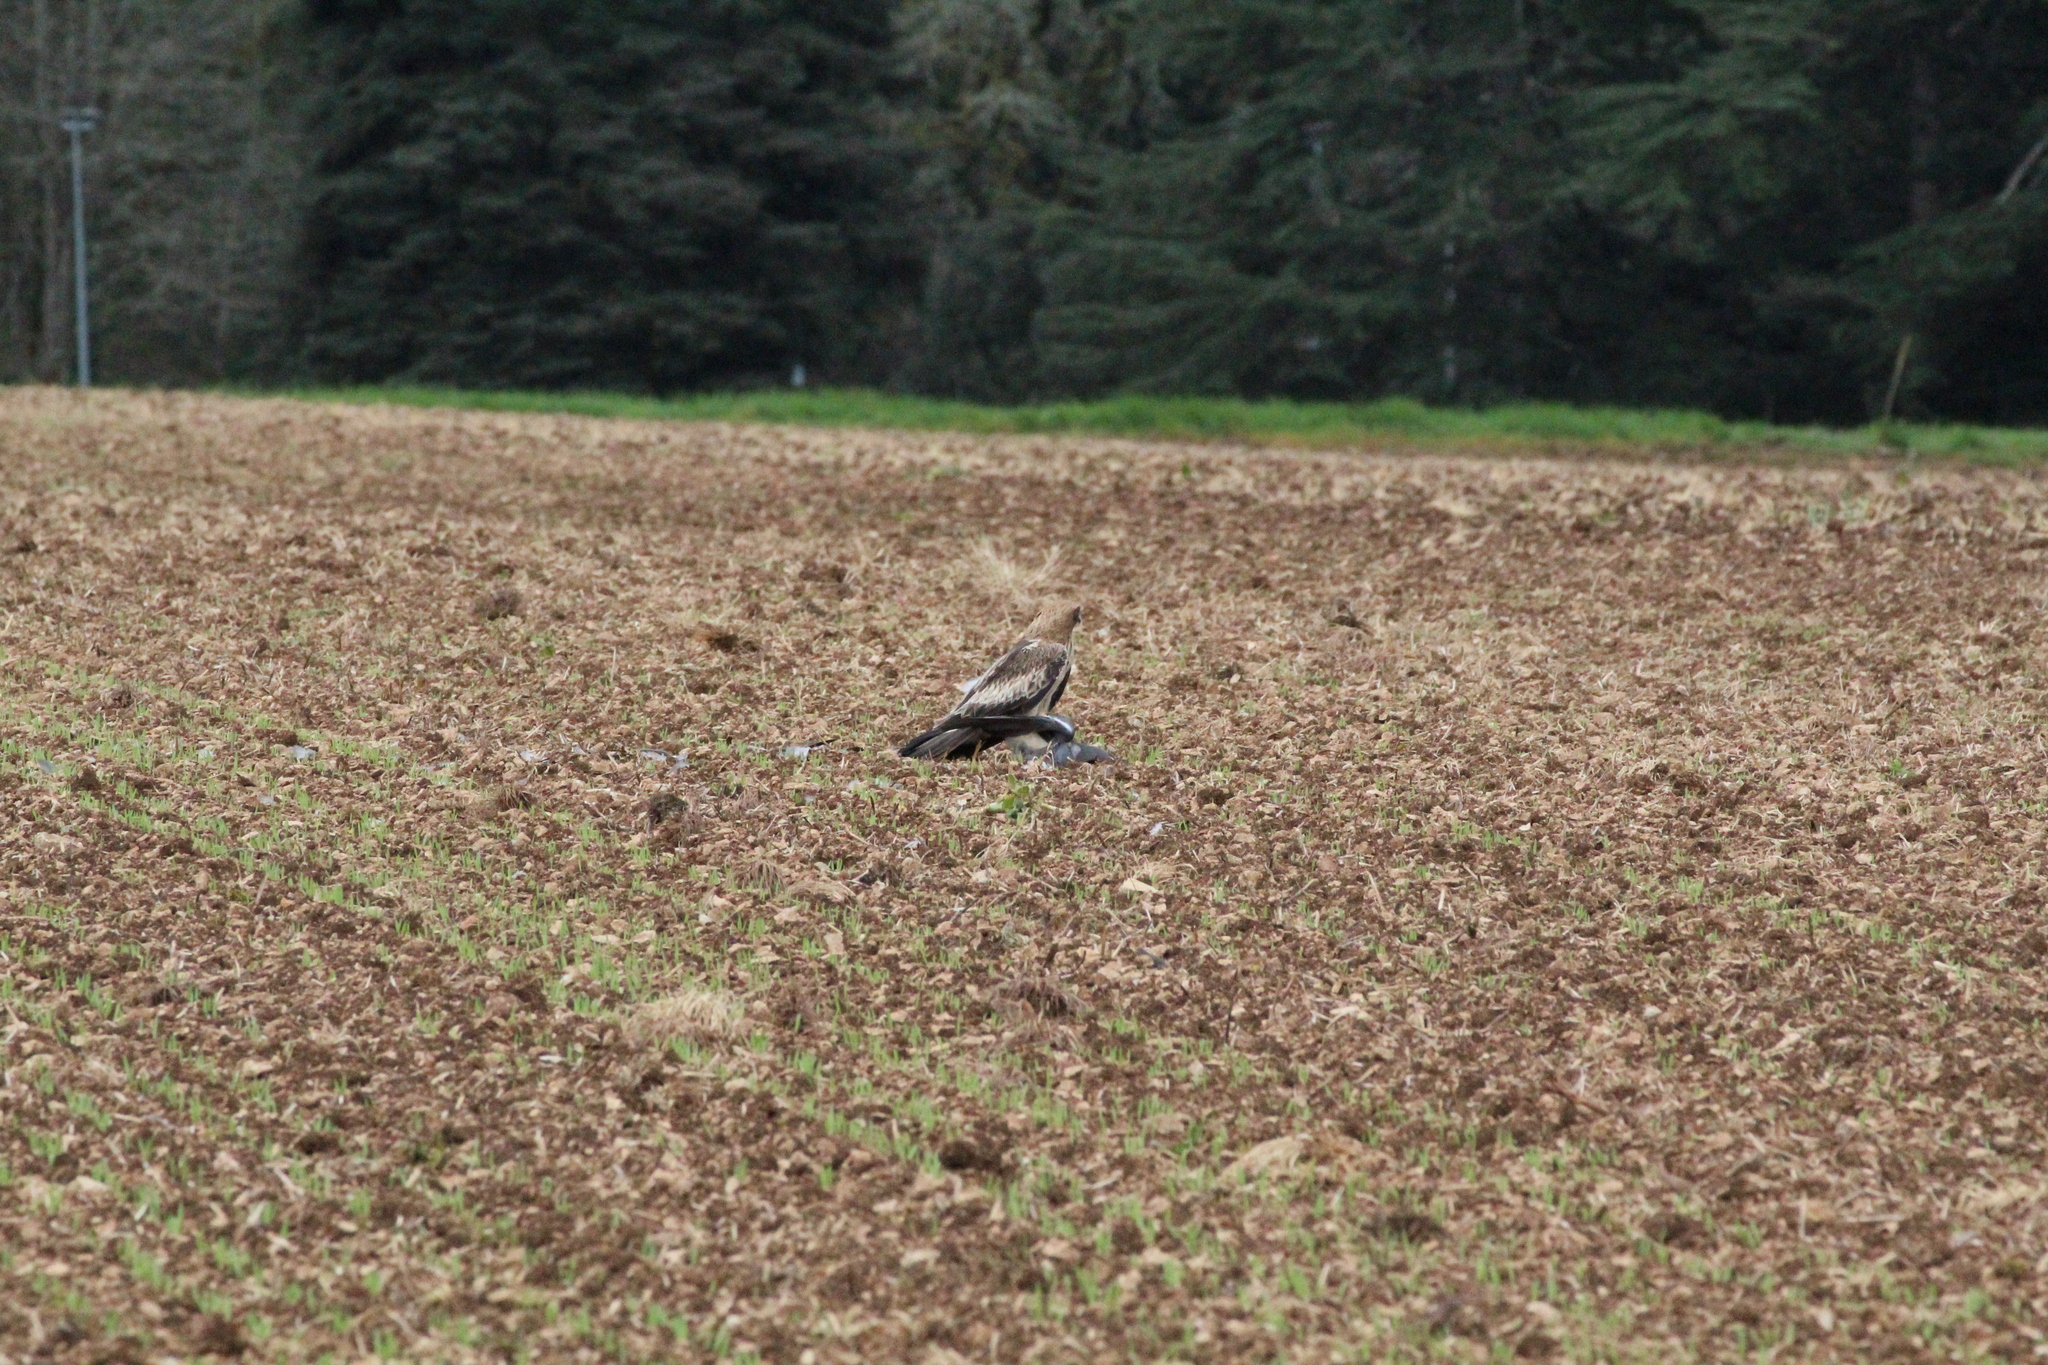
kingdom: Animalia
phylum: Chordata
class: Aves
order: Accipitriformes
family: Accipitridae
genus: Hieraaetus
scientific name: Hieraaetus pennatus
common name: Booted eagle
